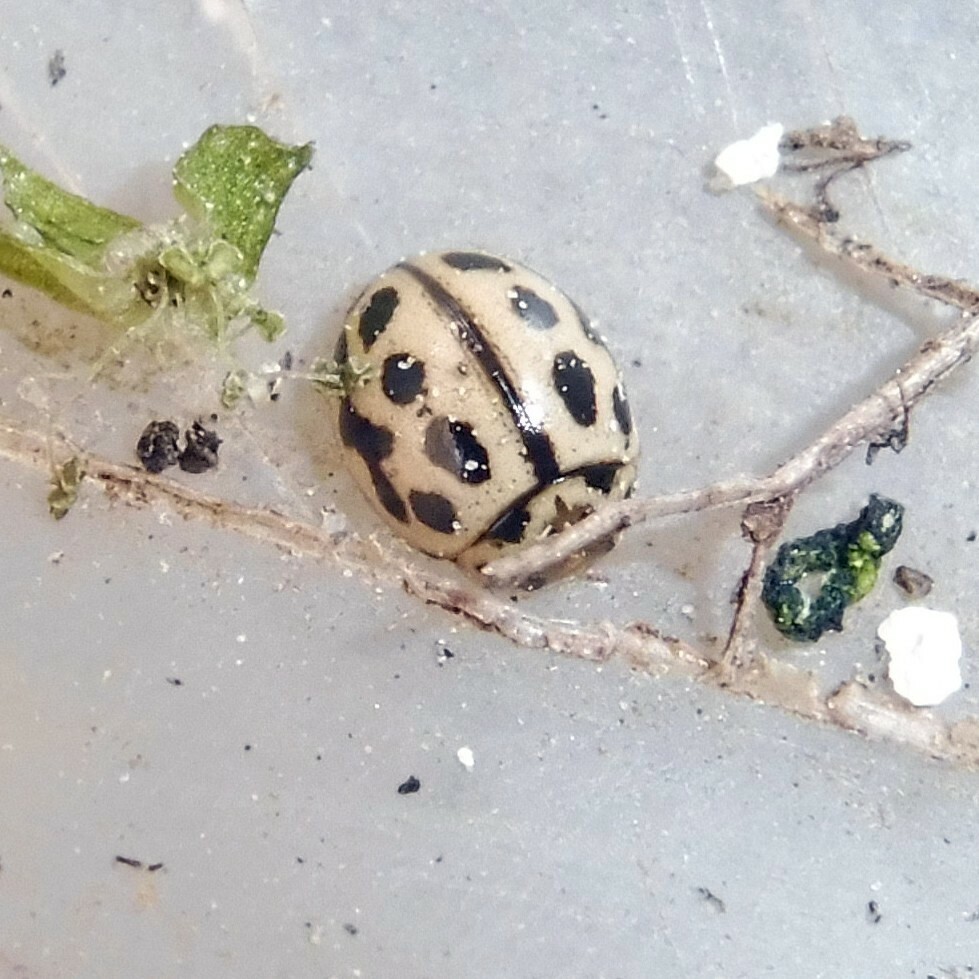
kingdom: Animalia
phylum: Arthropoda
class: Insecta
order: Coleoptera
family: Coccinellidae
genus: Tytthaspis
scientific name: Tytthaspis sedecimpunctata
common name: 16-spot ladybird
